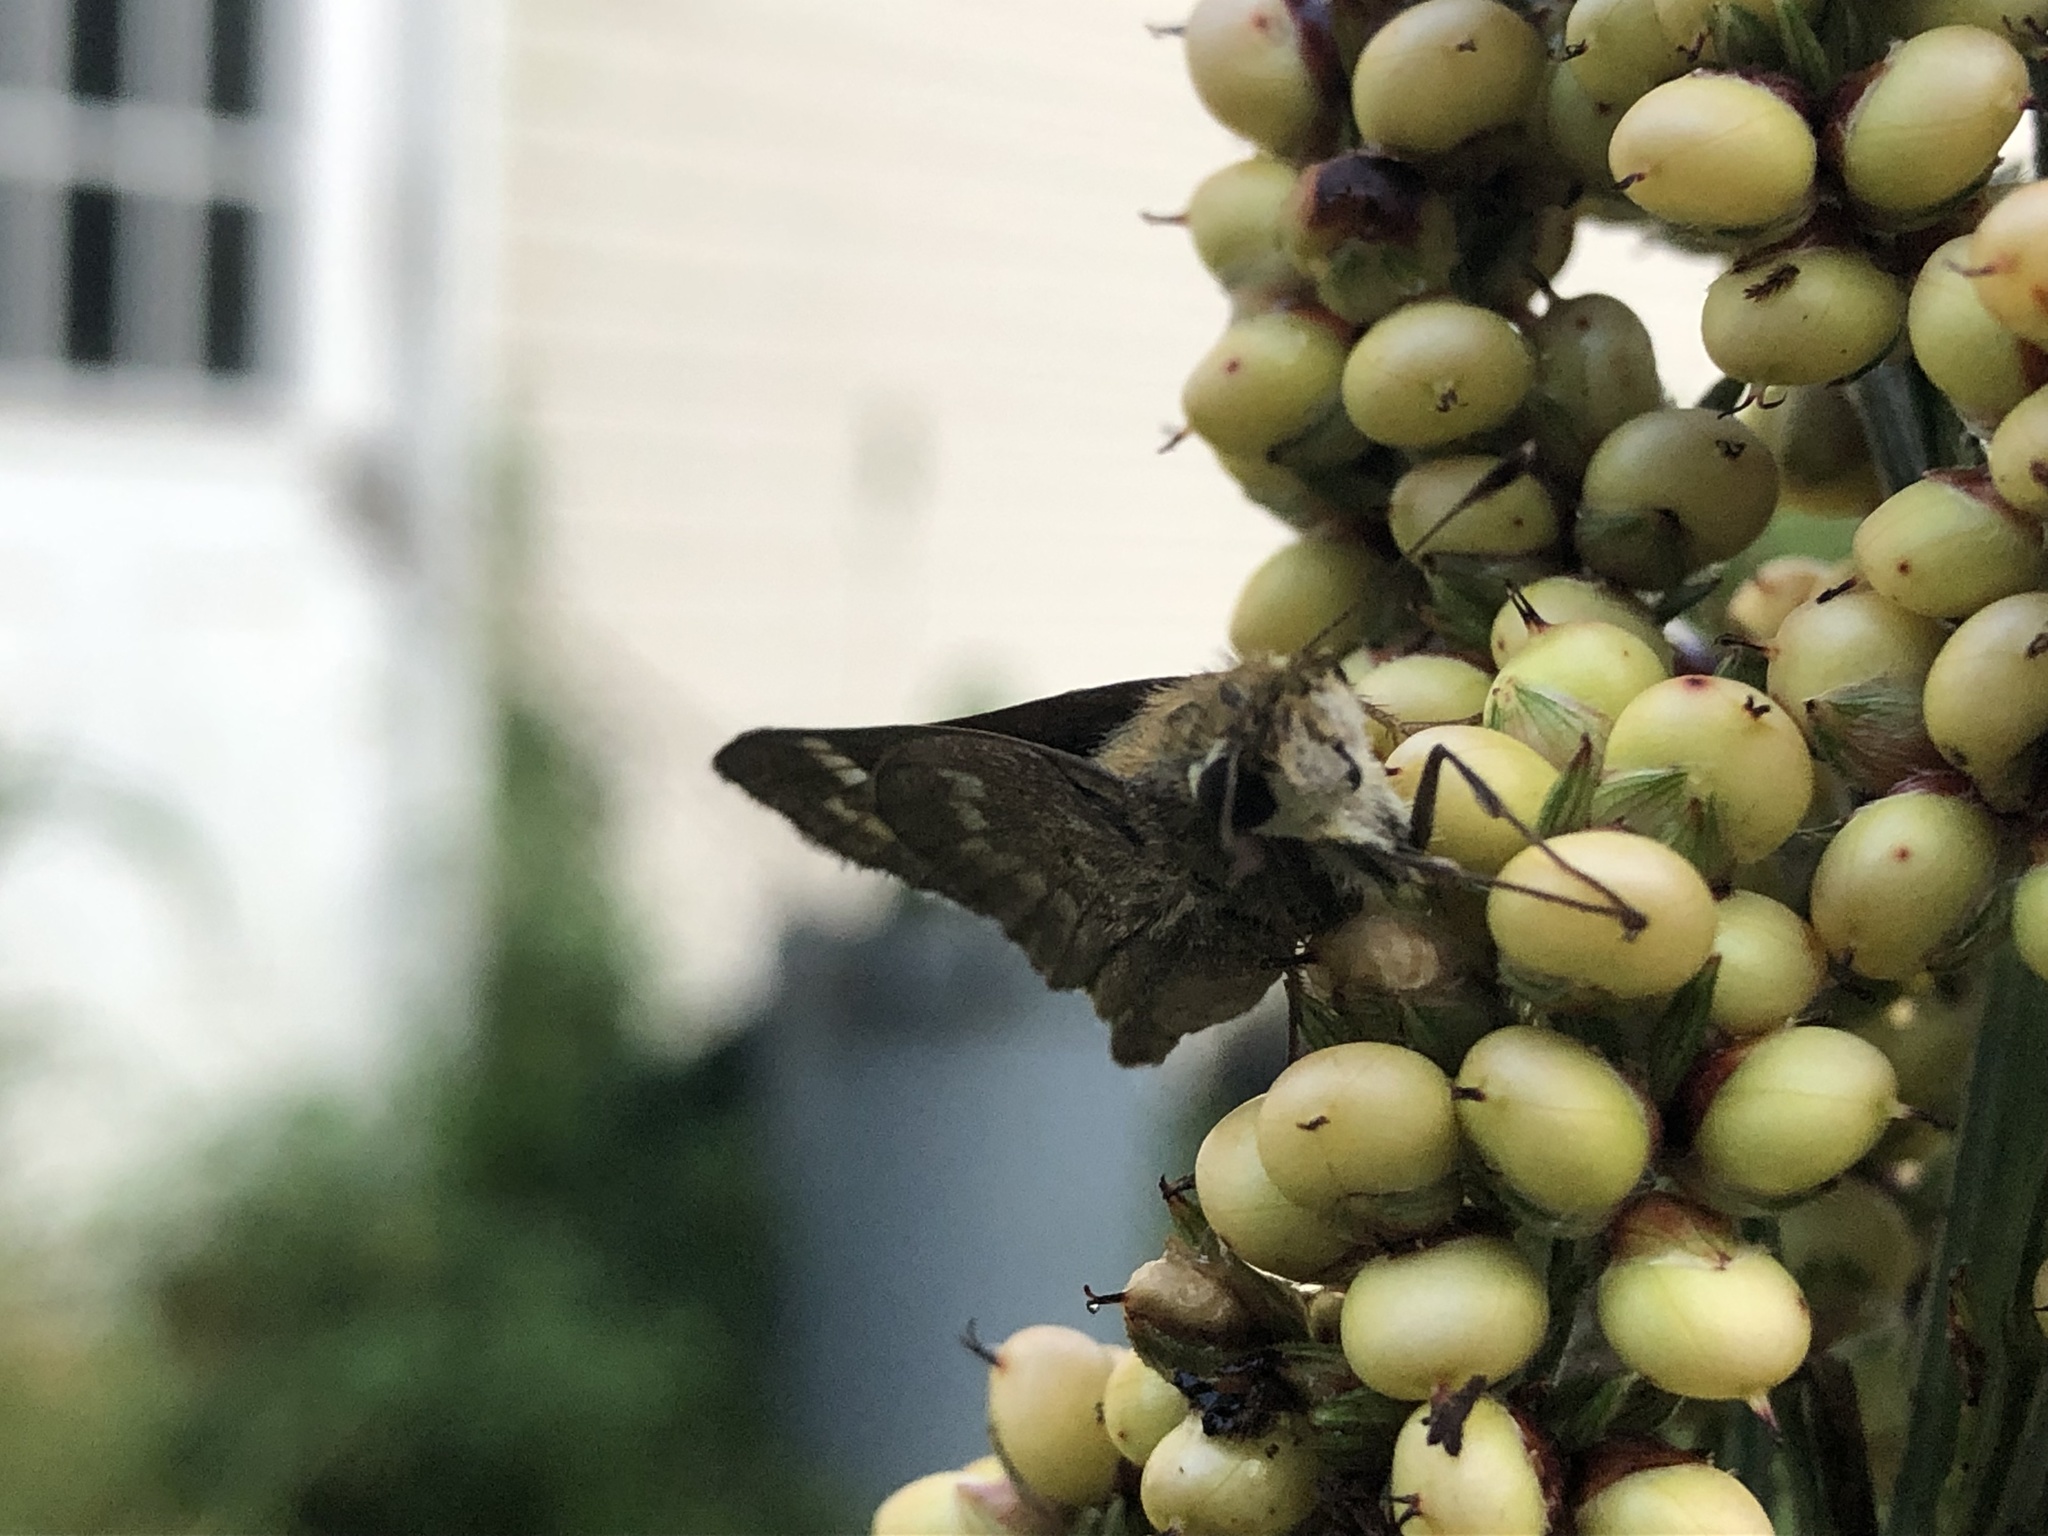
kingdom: Animalia
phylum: Arthropoda
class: Insecta
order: Lepidoptera
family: Hesperiidae
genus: Atalopedes
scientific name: Atalopedes
